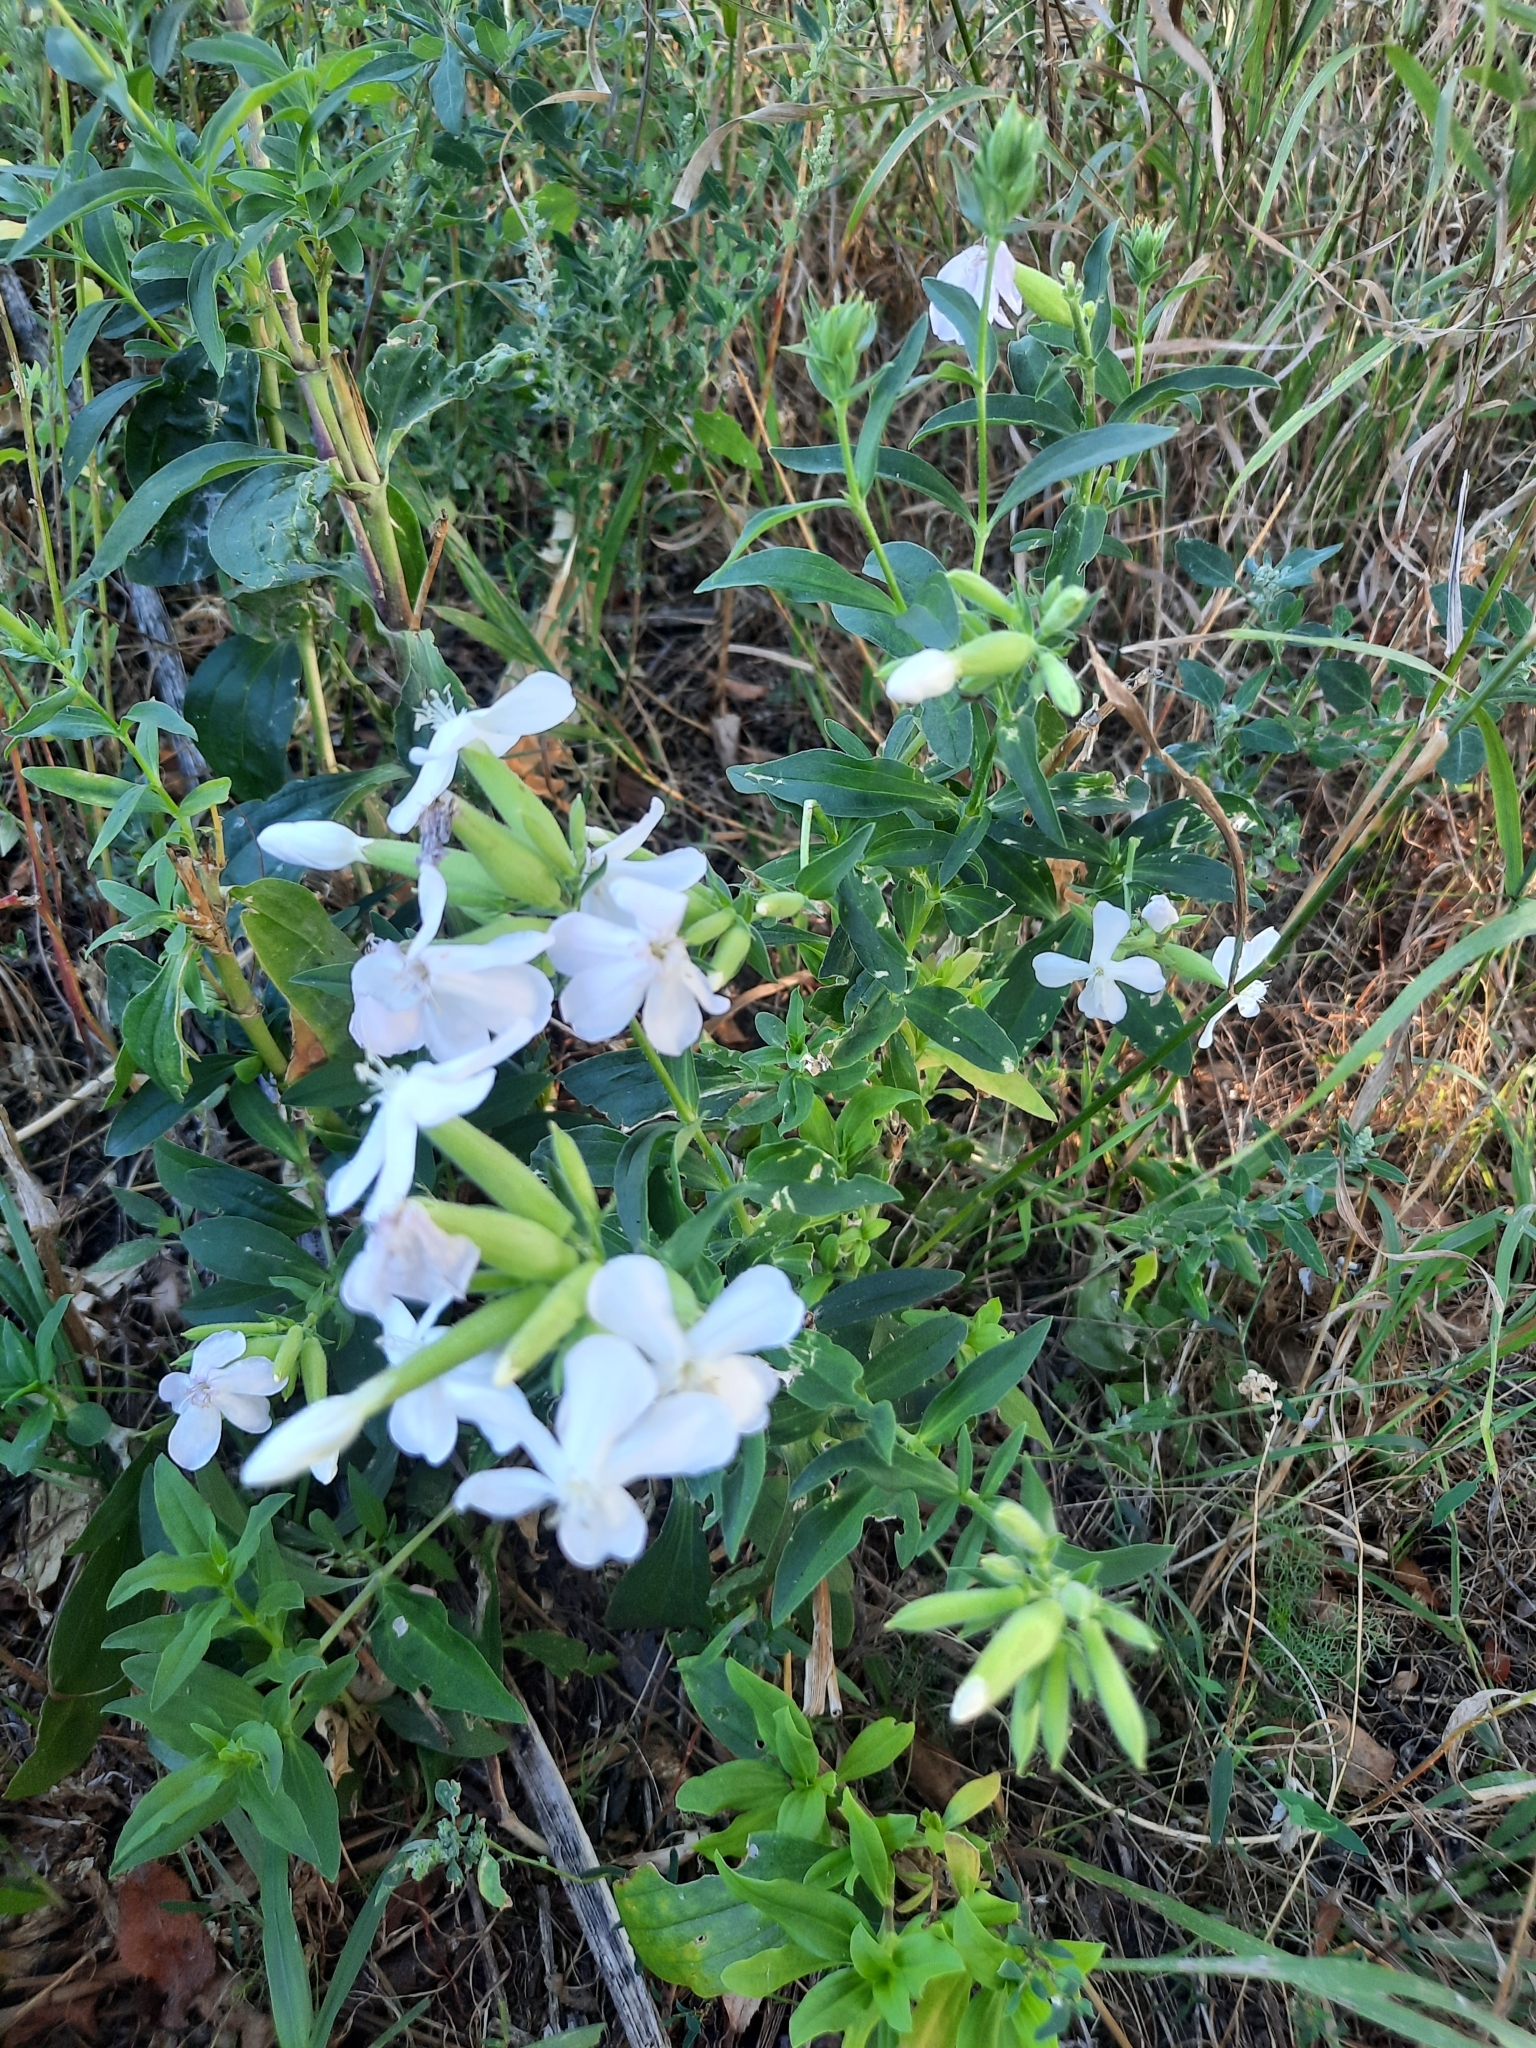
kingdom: Plantae
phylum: Tracheophyta
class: Magnoliopsida
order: Caryophyllales
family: Caryophyllaceae
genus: Saponaria
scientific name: Saponaria officinalis
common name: Soapwort
